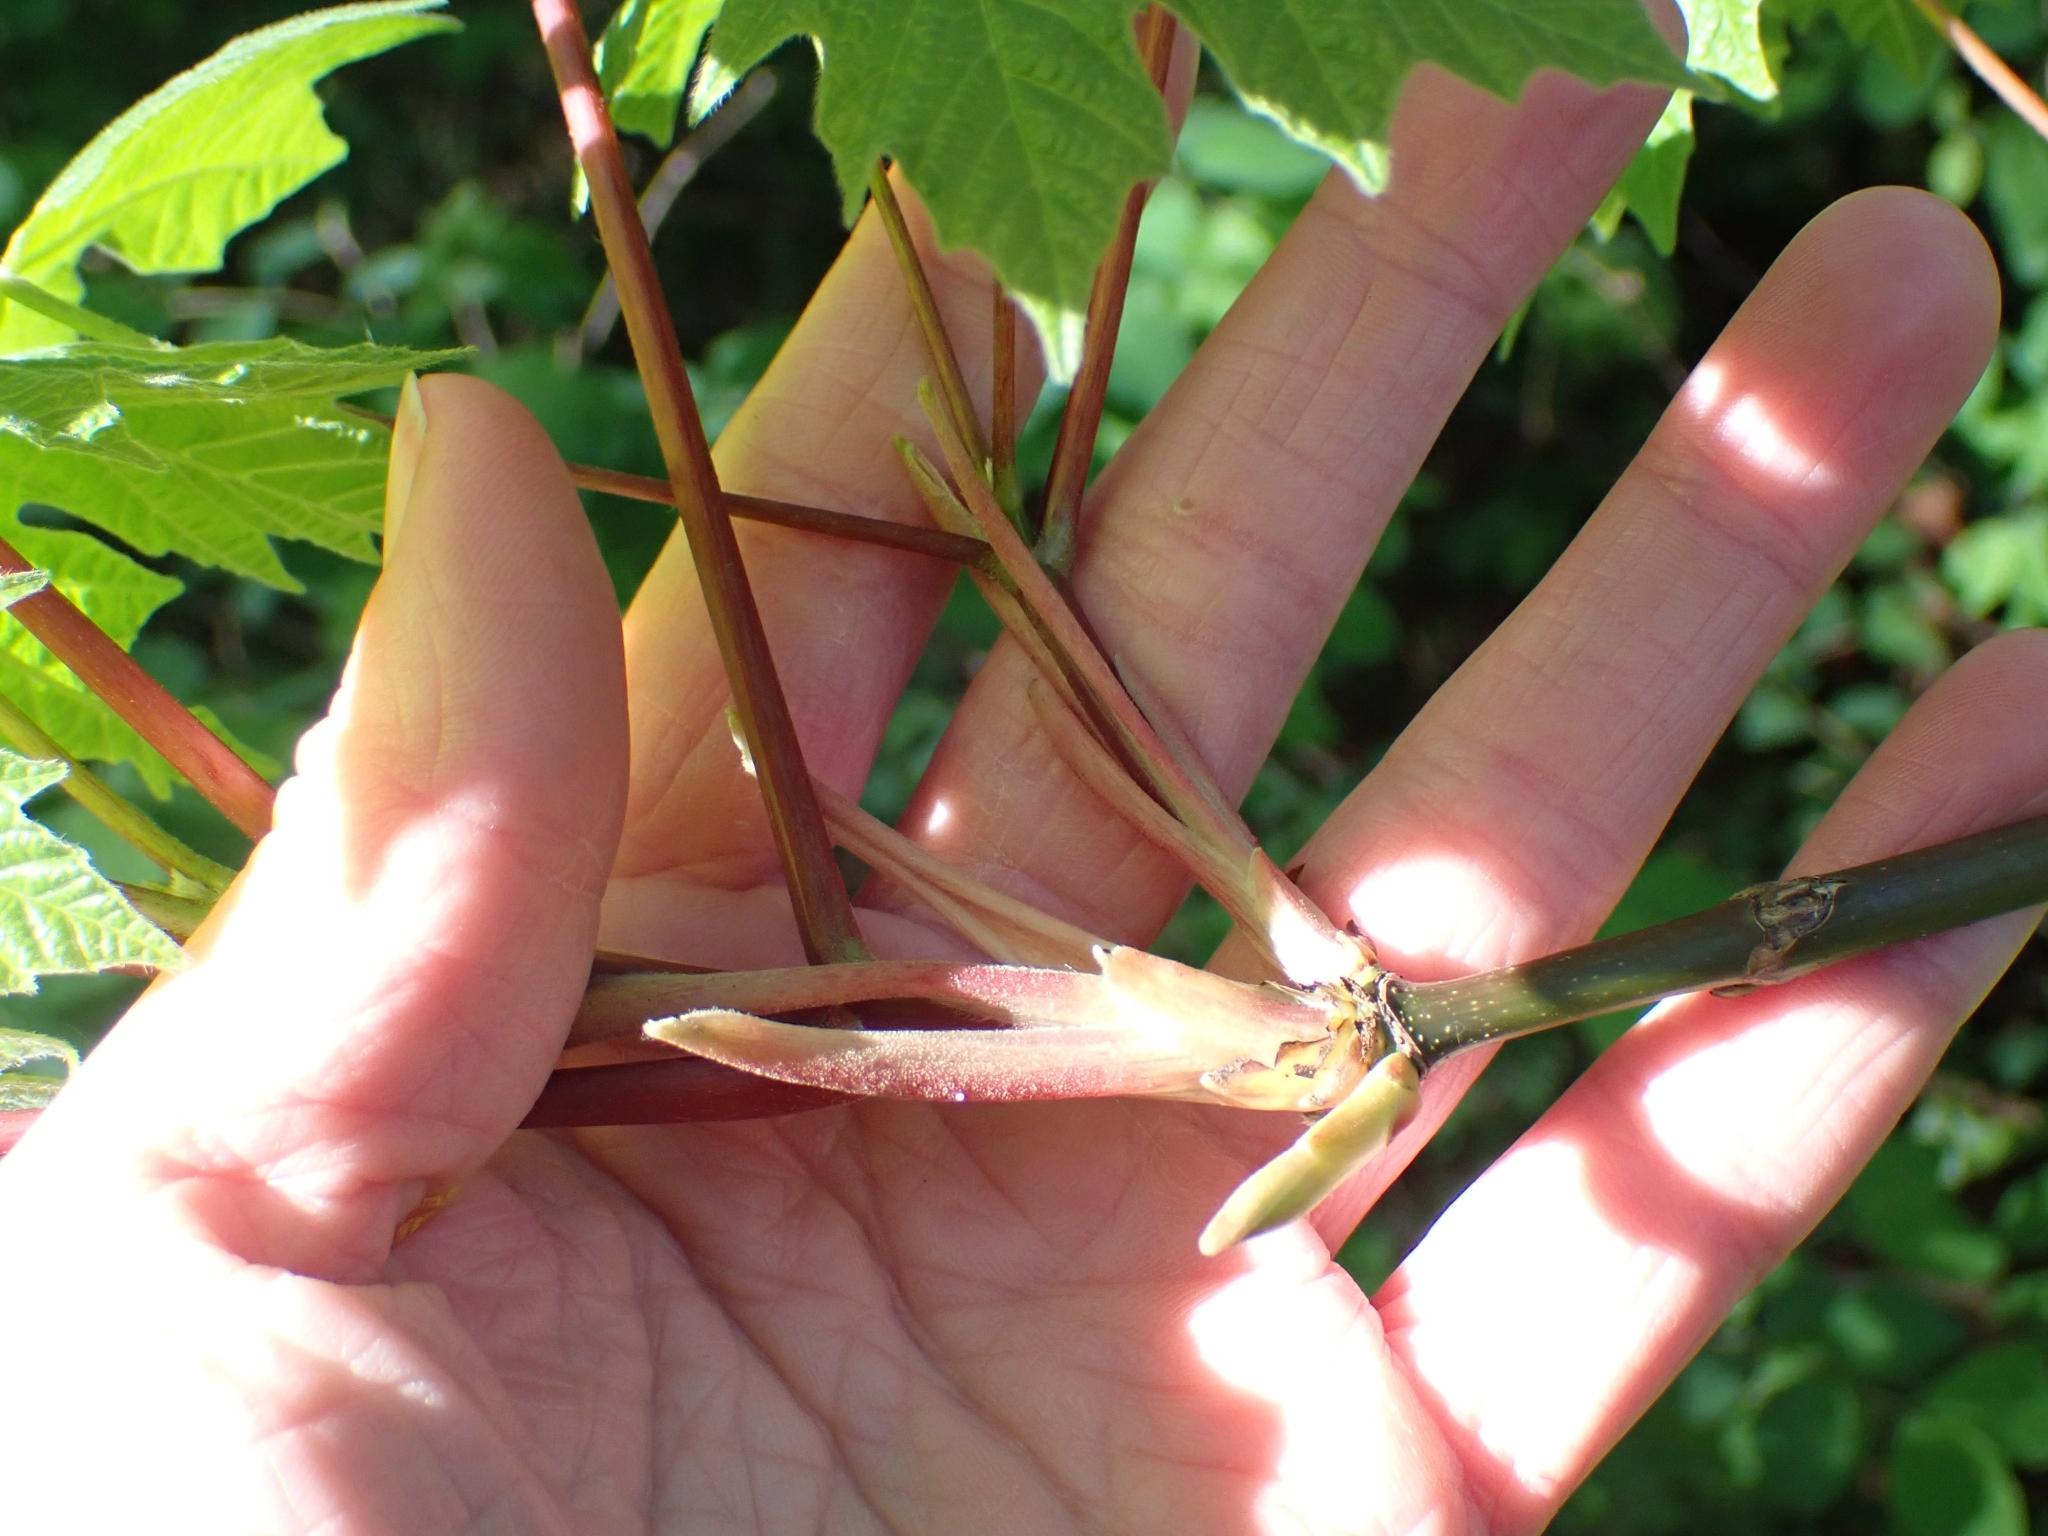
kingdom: Plantae
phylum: Tracheophyta
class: Magnoliopsida
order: Sapindales
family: Sapindaceae
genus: Acer
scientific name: Acer macrophyllum
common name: Oregon maple
